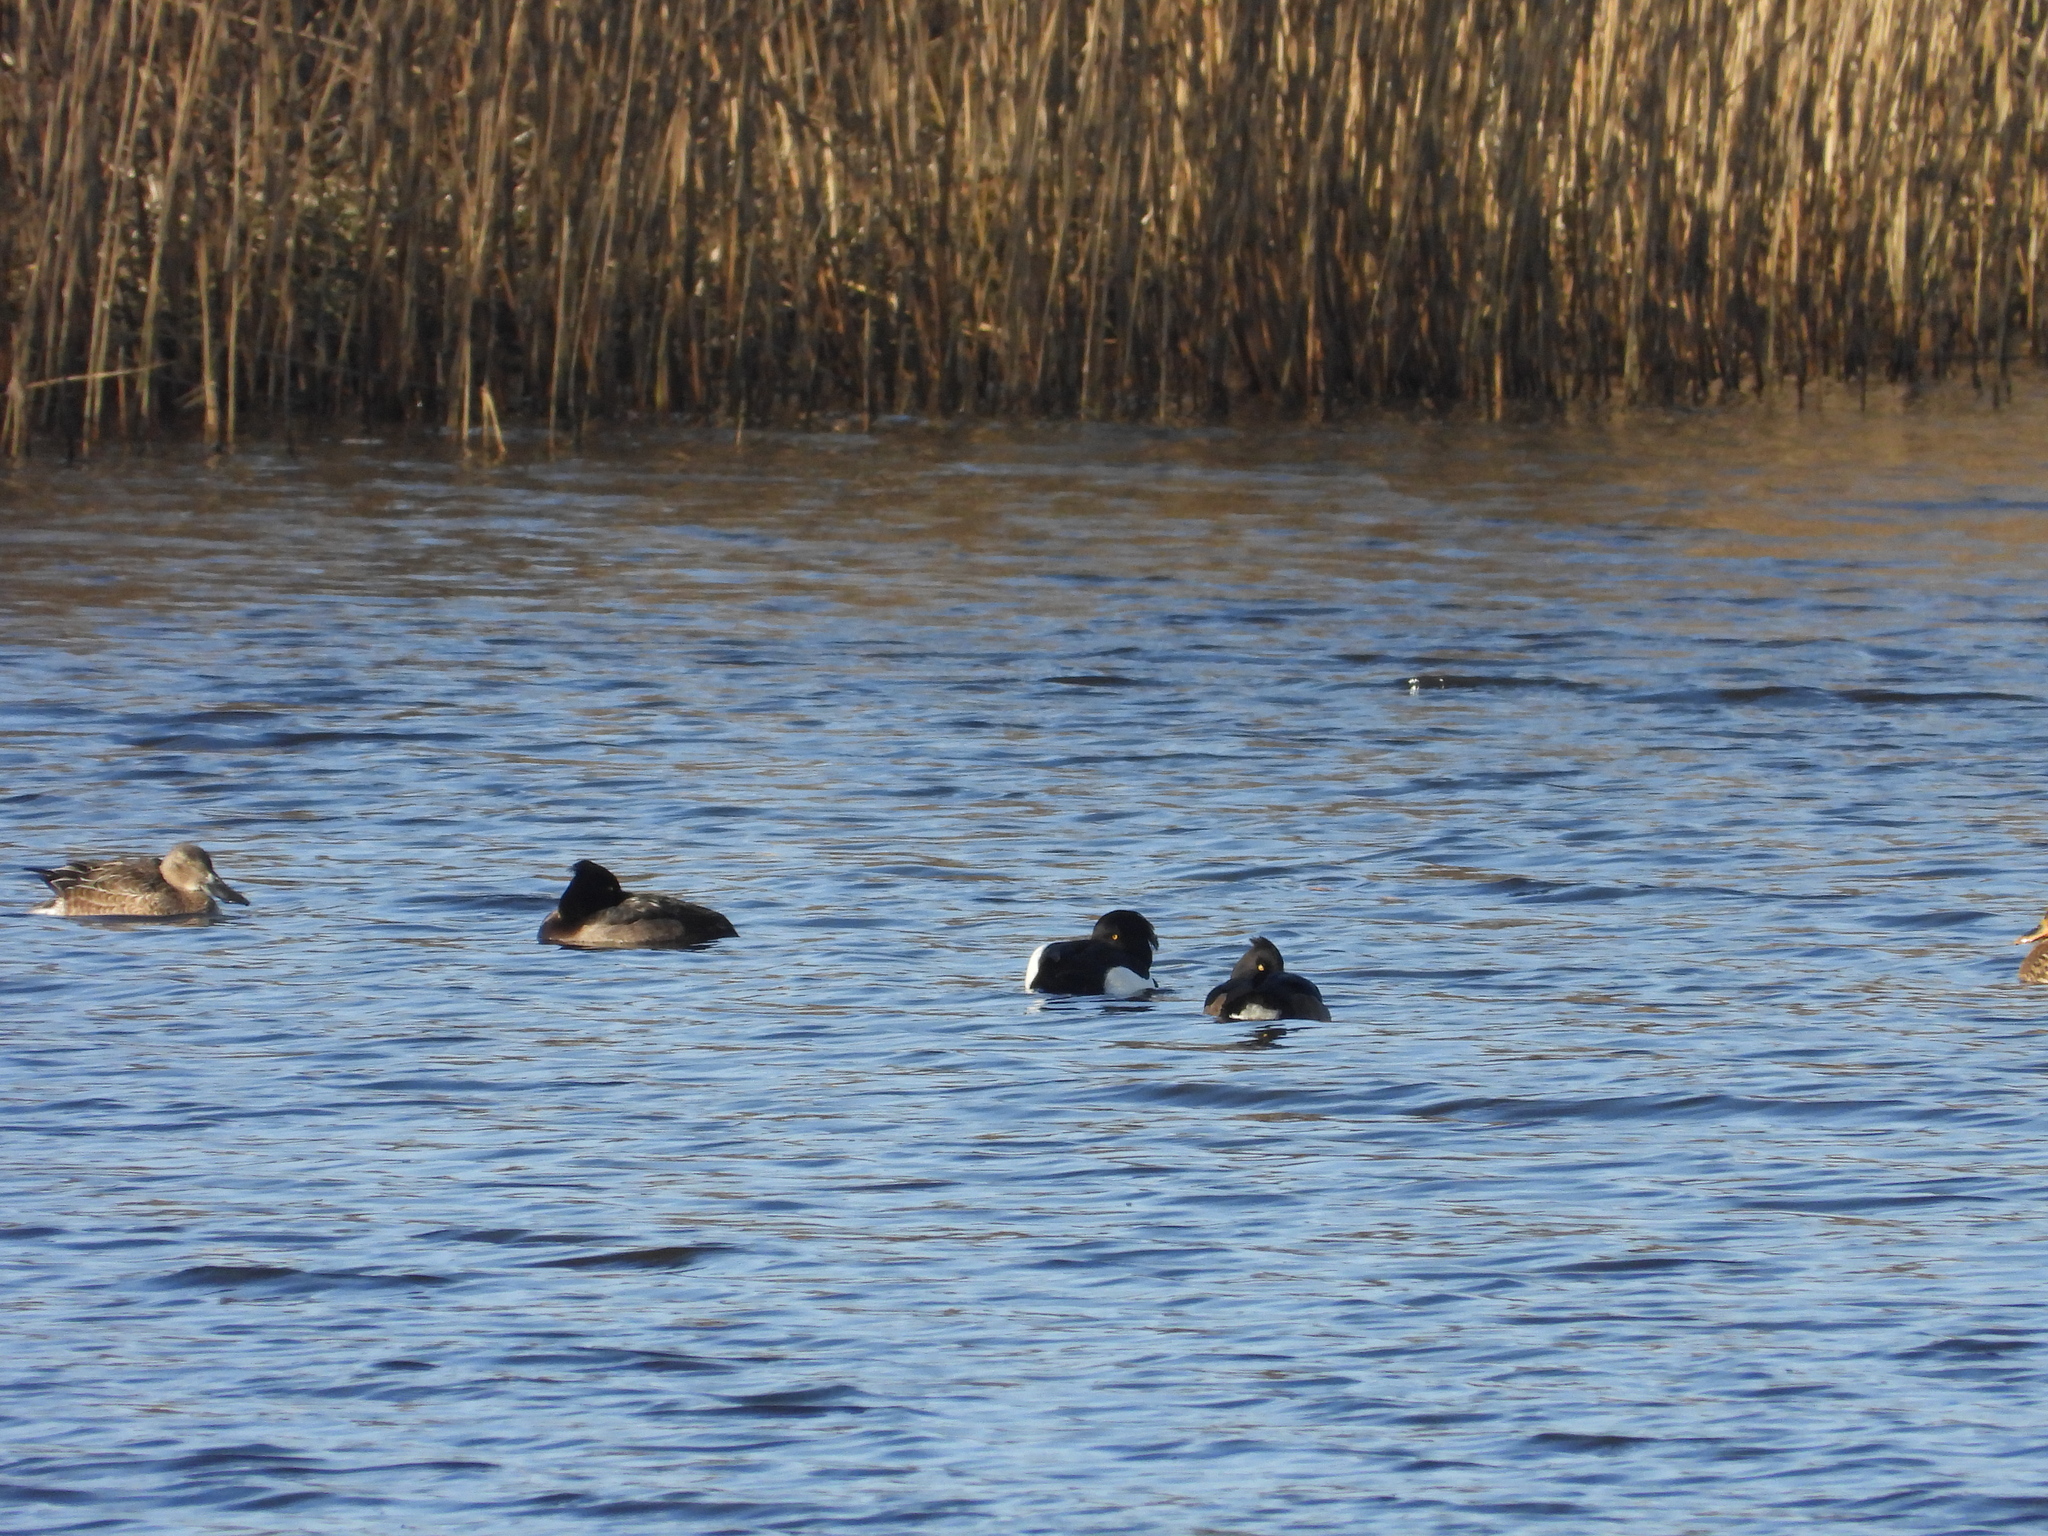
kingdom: Animalia
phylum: Chordata
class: Aves
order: Anseriformes
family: Anatidae
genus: Aythya
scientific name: Aythya fuligula
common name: Tufted duck
